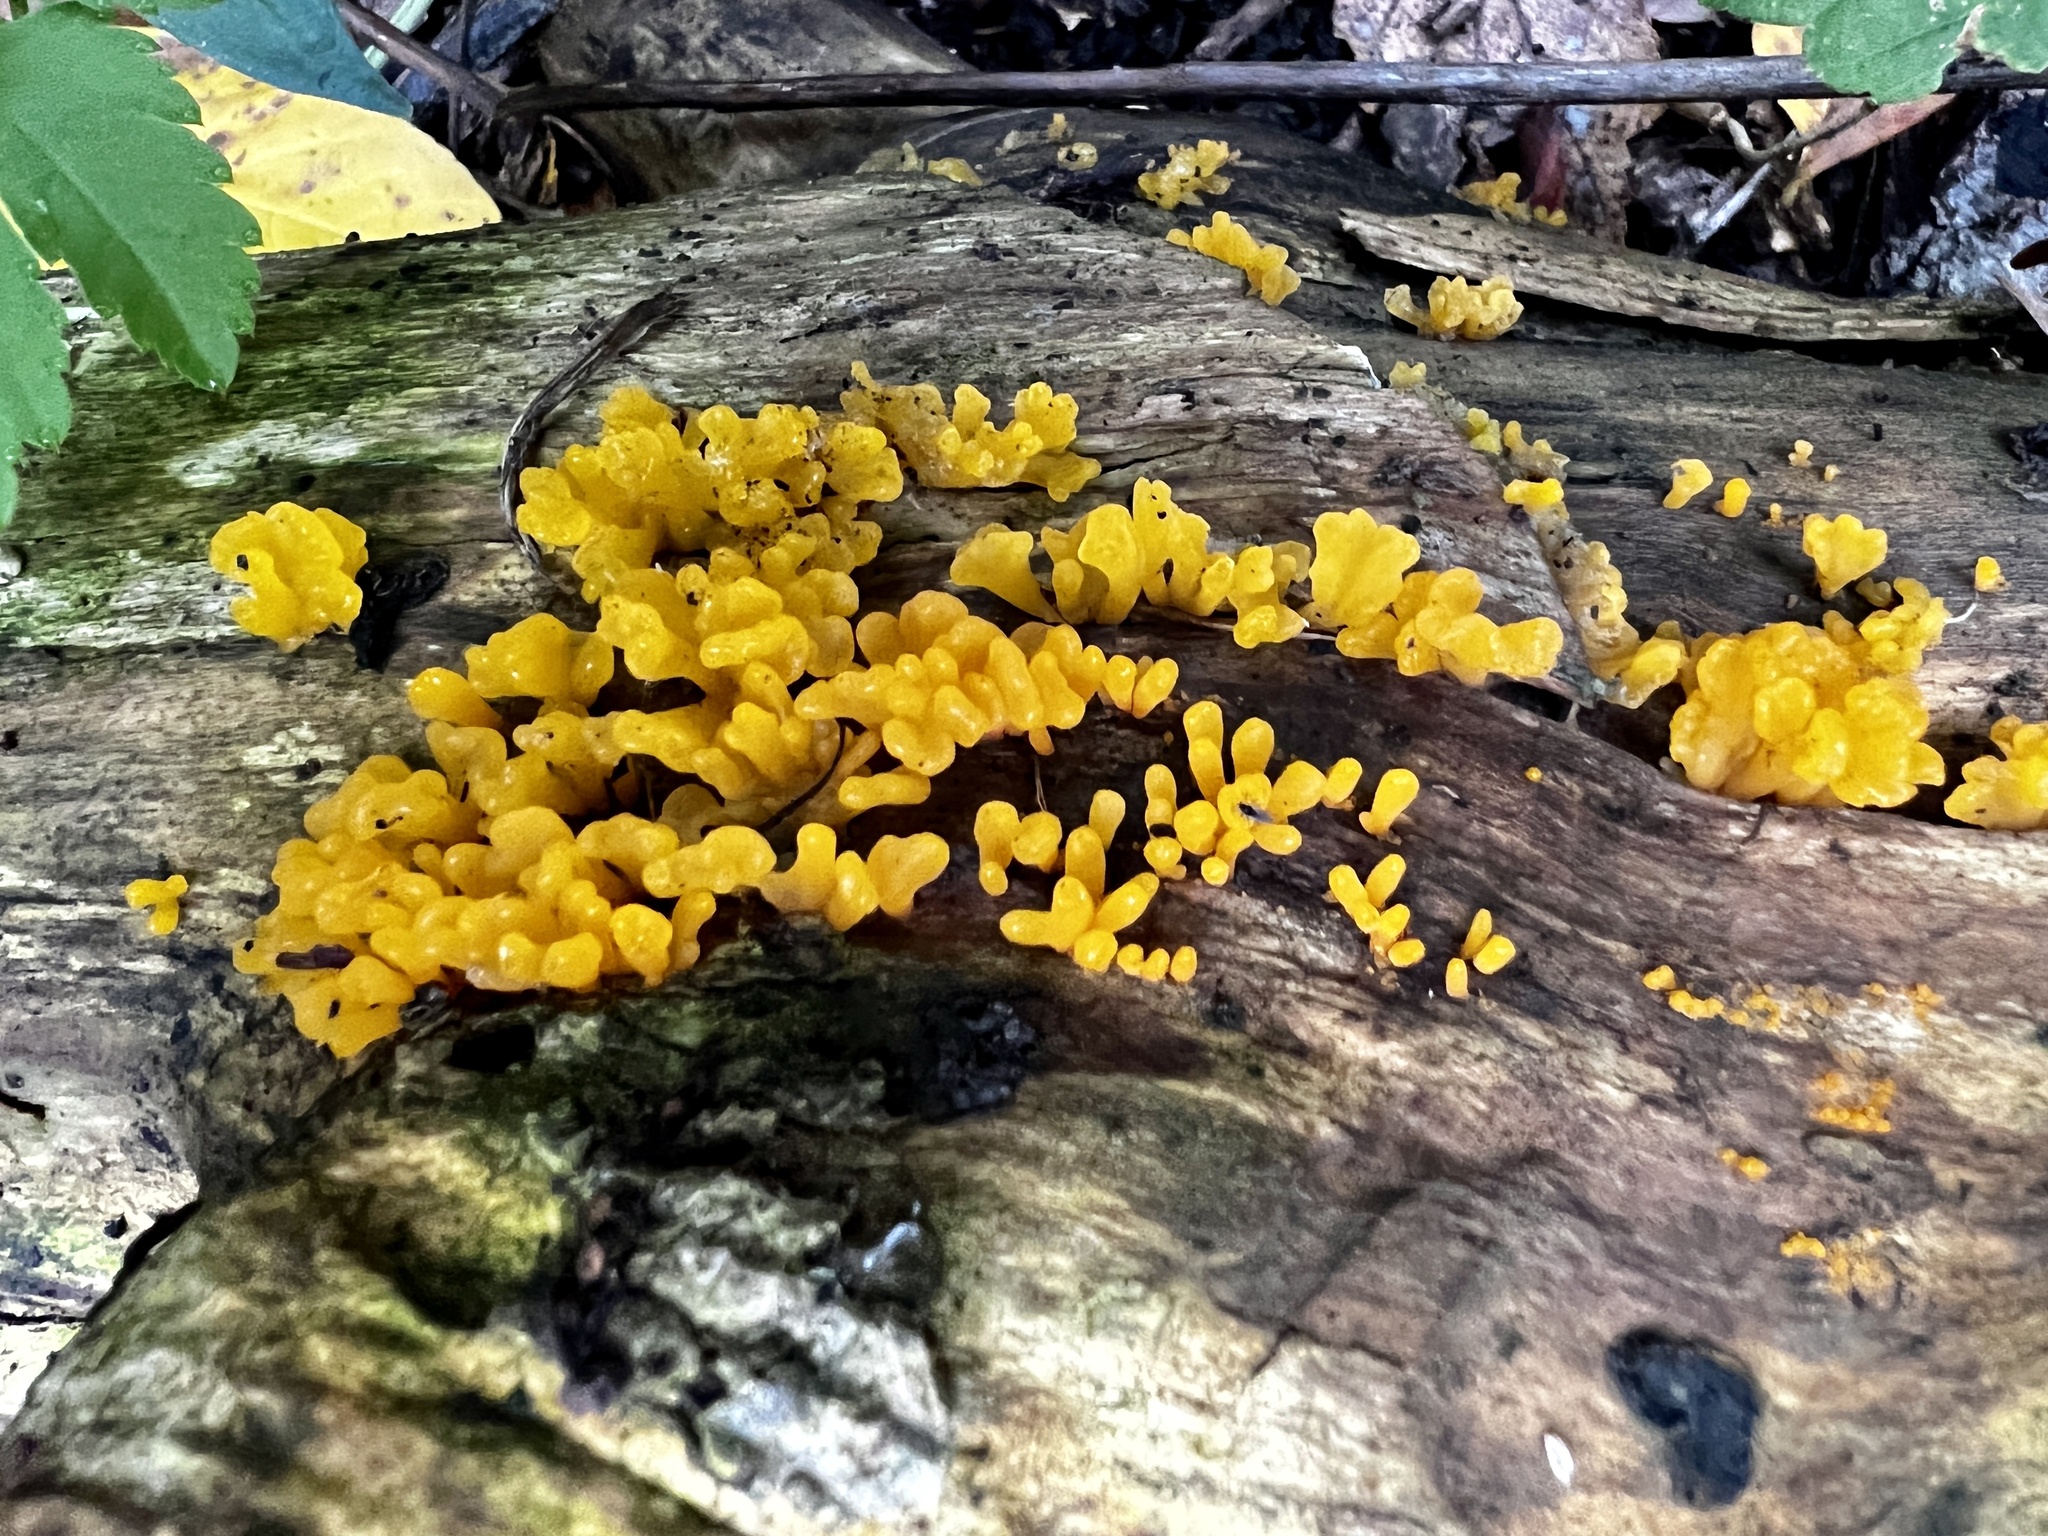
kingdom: Fungi
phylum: Basidiomycota
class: Dacrymycetes
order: Dacrymycetales
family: Dacrymycetaceae
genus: Dacrymyces
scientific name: Dacrymyces spathularius
